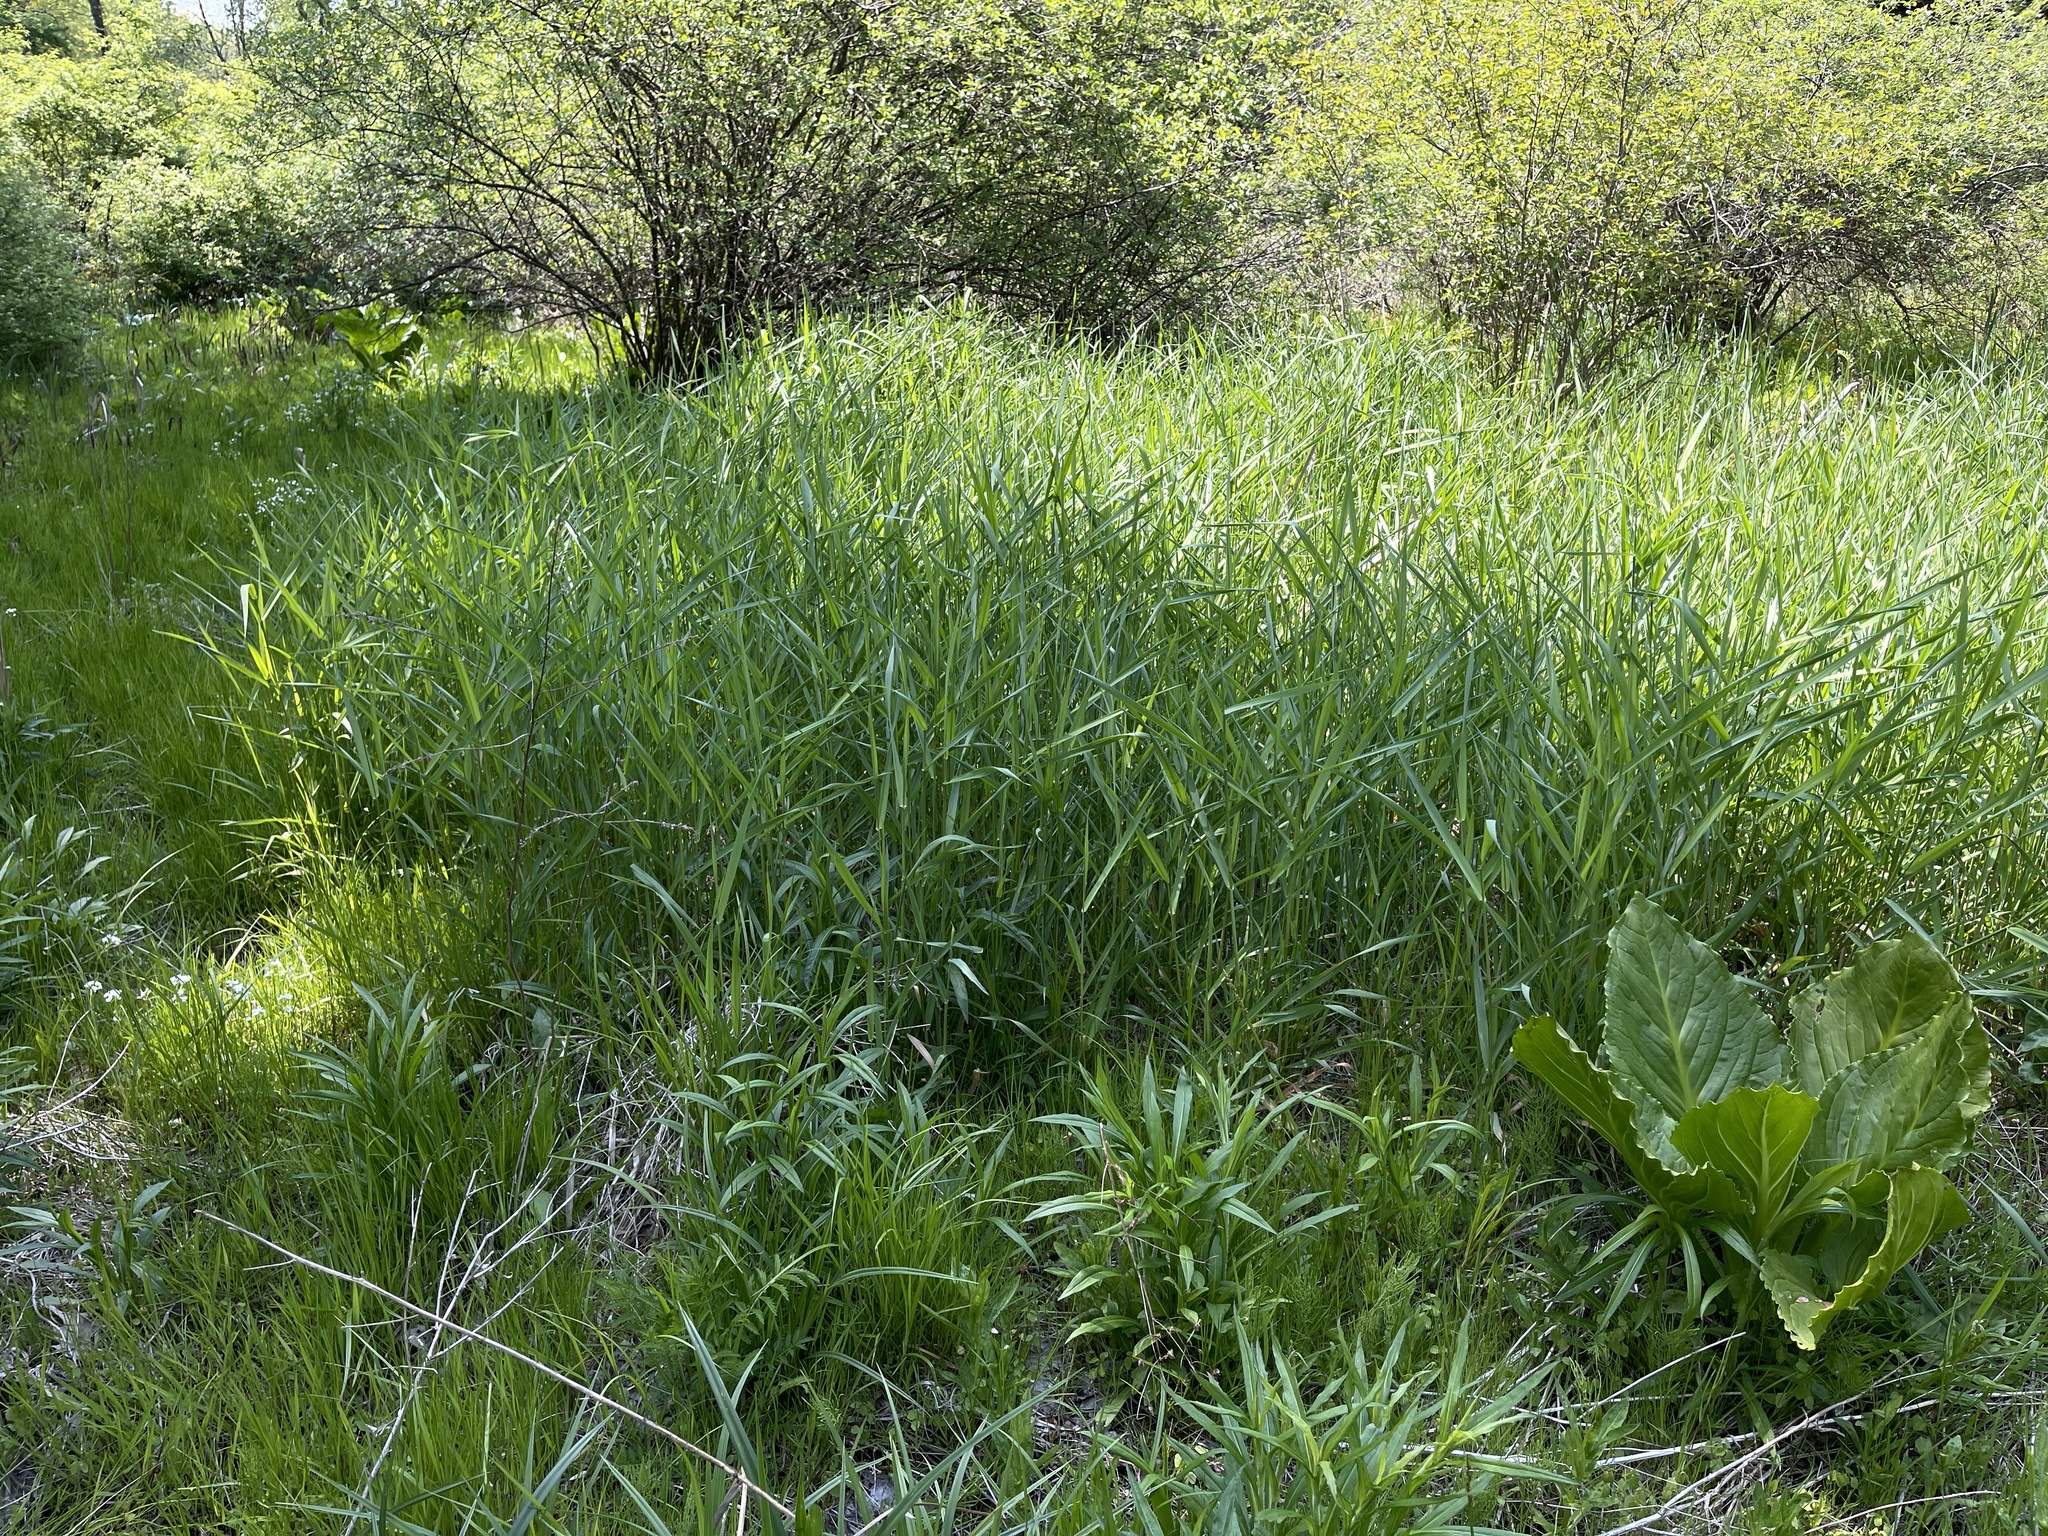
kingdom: Plantae
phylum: Tracheophyta
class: Liliopsida
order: Poales
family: Poaceae
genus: Phalaris
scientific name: Phalaris arundinacea
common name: Reed canary-grass
